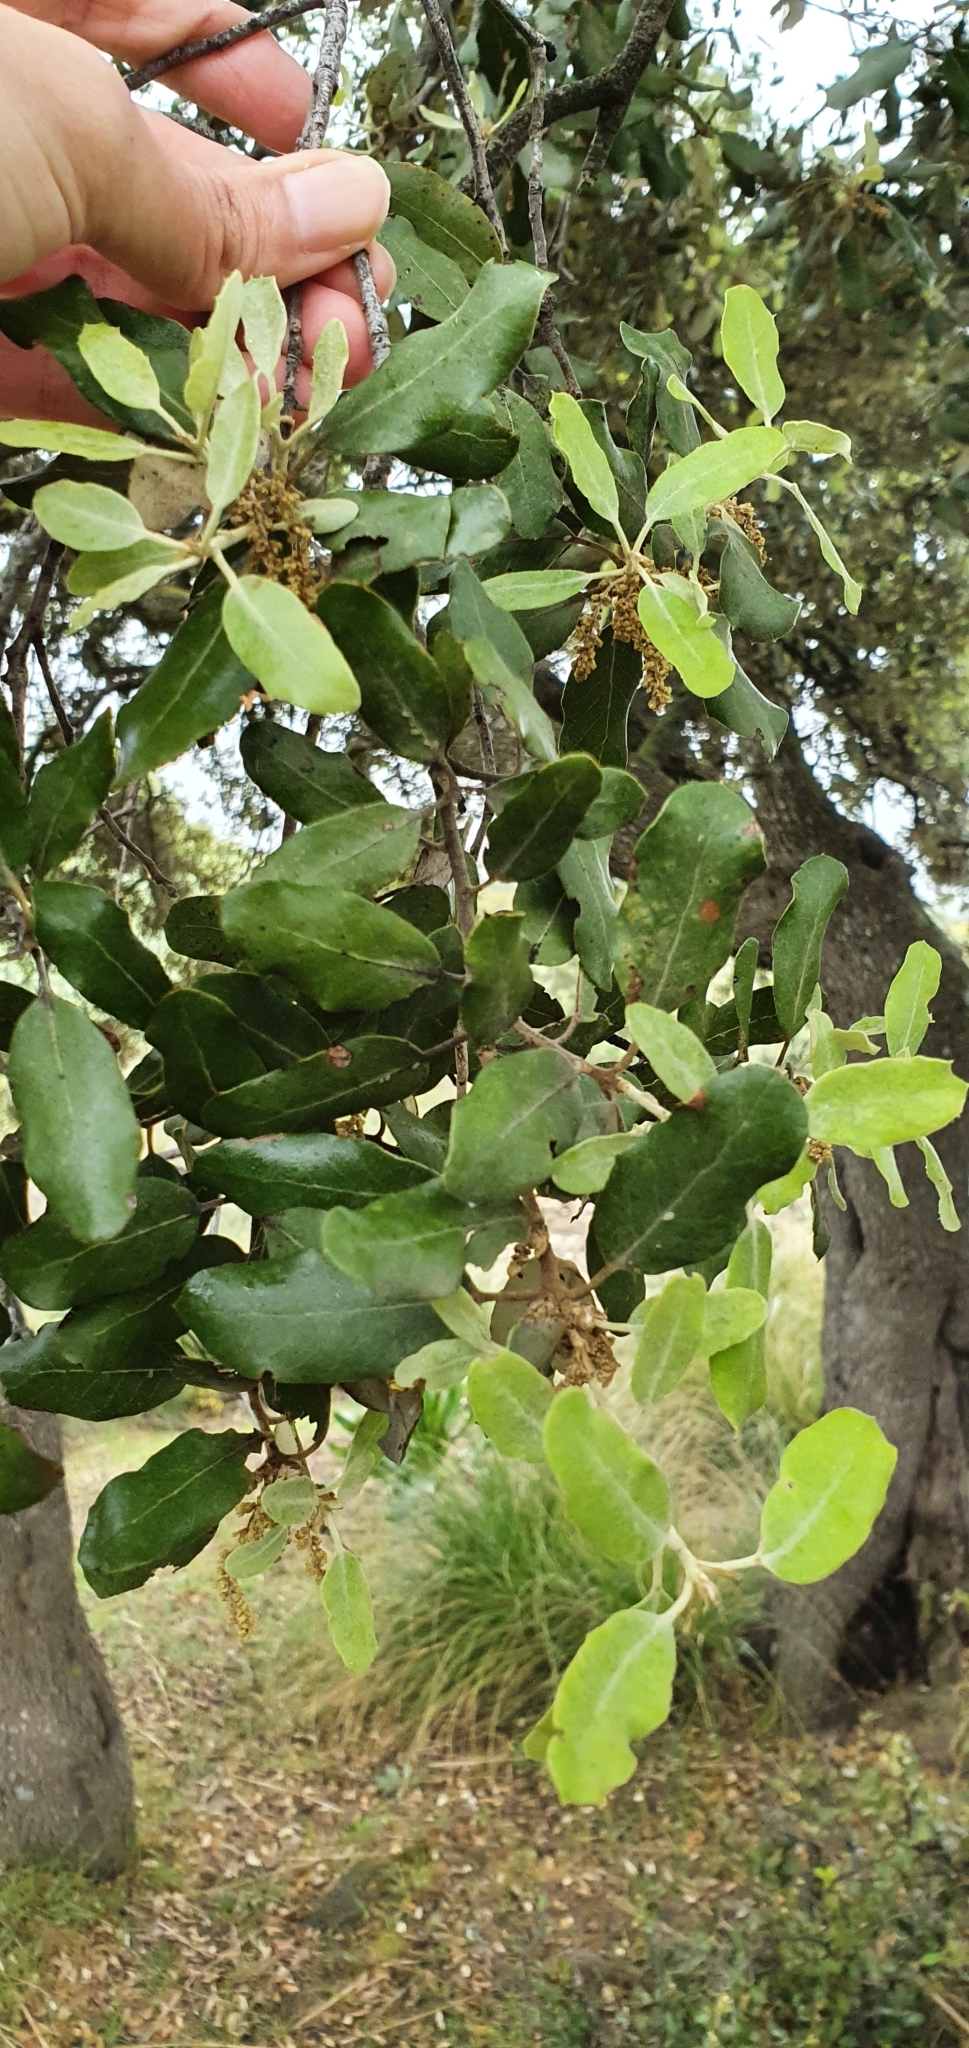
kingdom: Plantae
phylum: Tracheophyta
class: Magnoliopsida
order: Fagales
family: Fagaceae
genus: Quercus
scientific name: Quercus rotundifolia
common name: Holm oak
